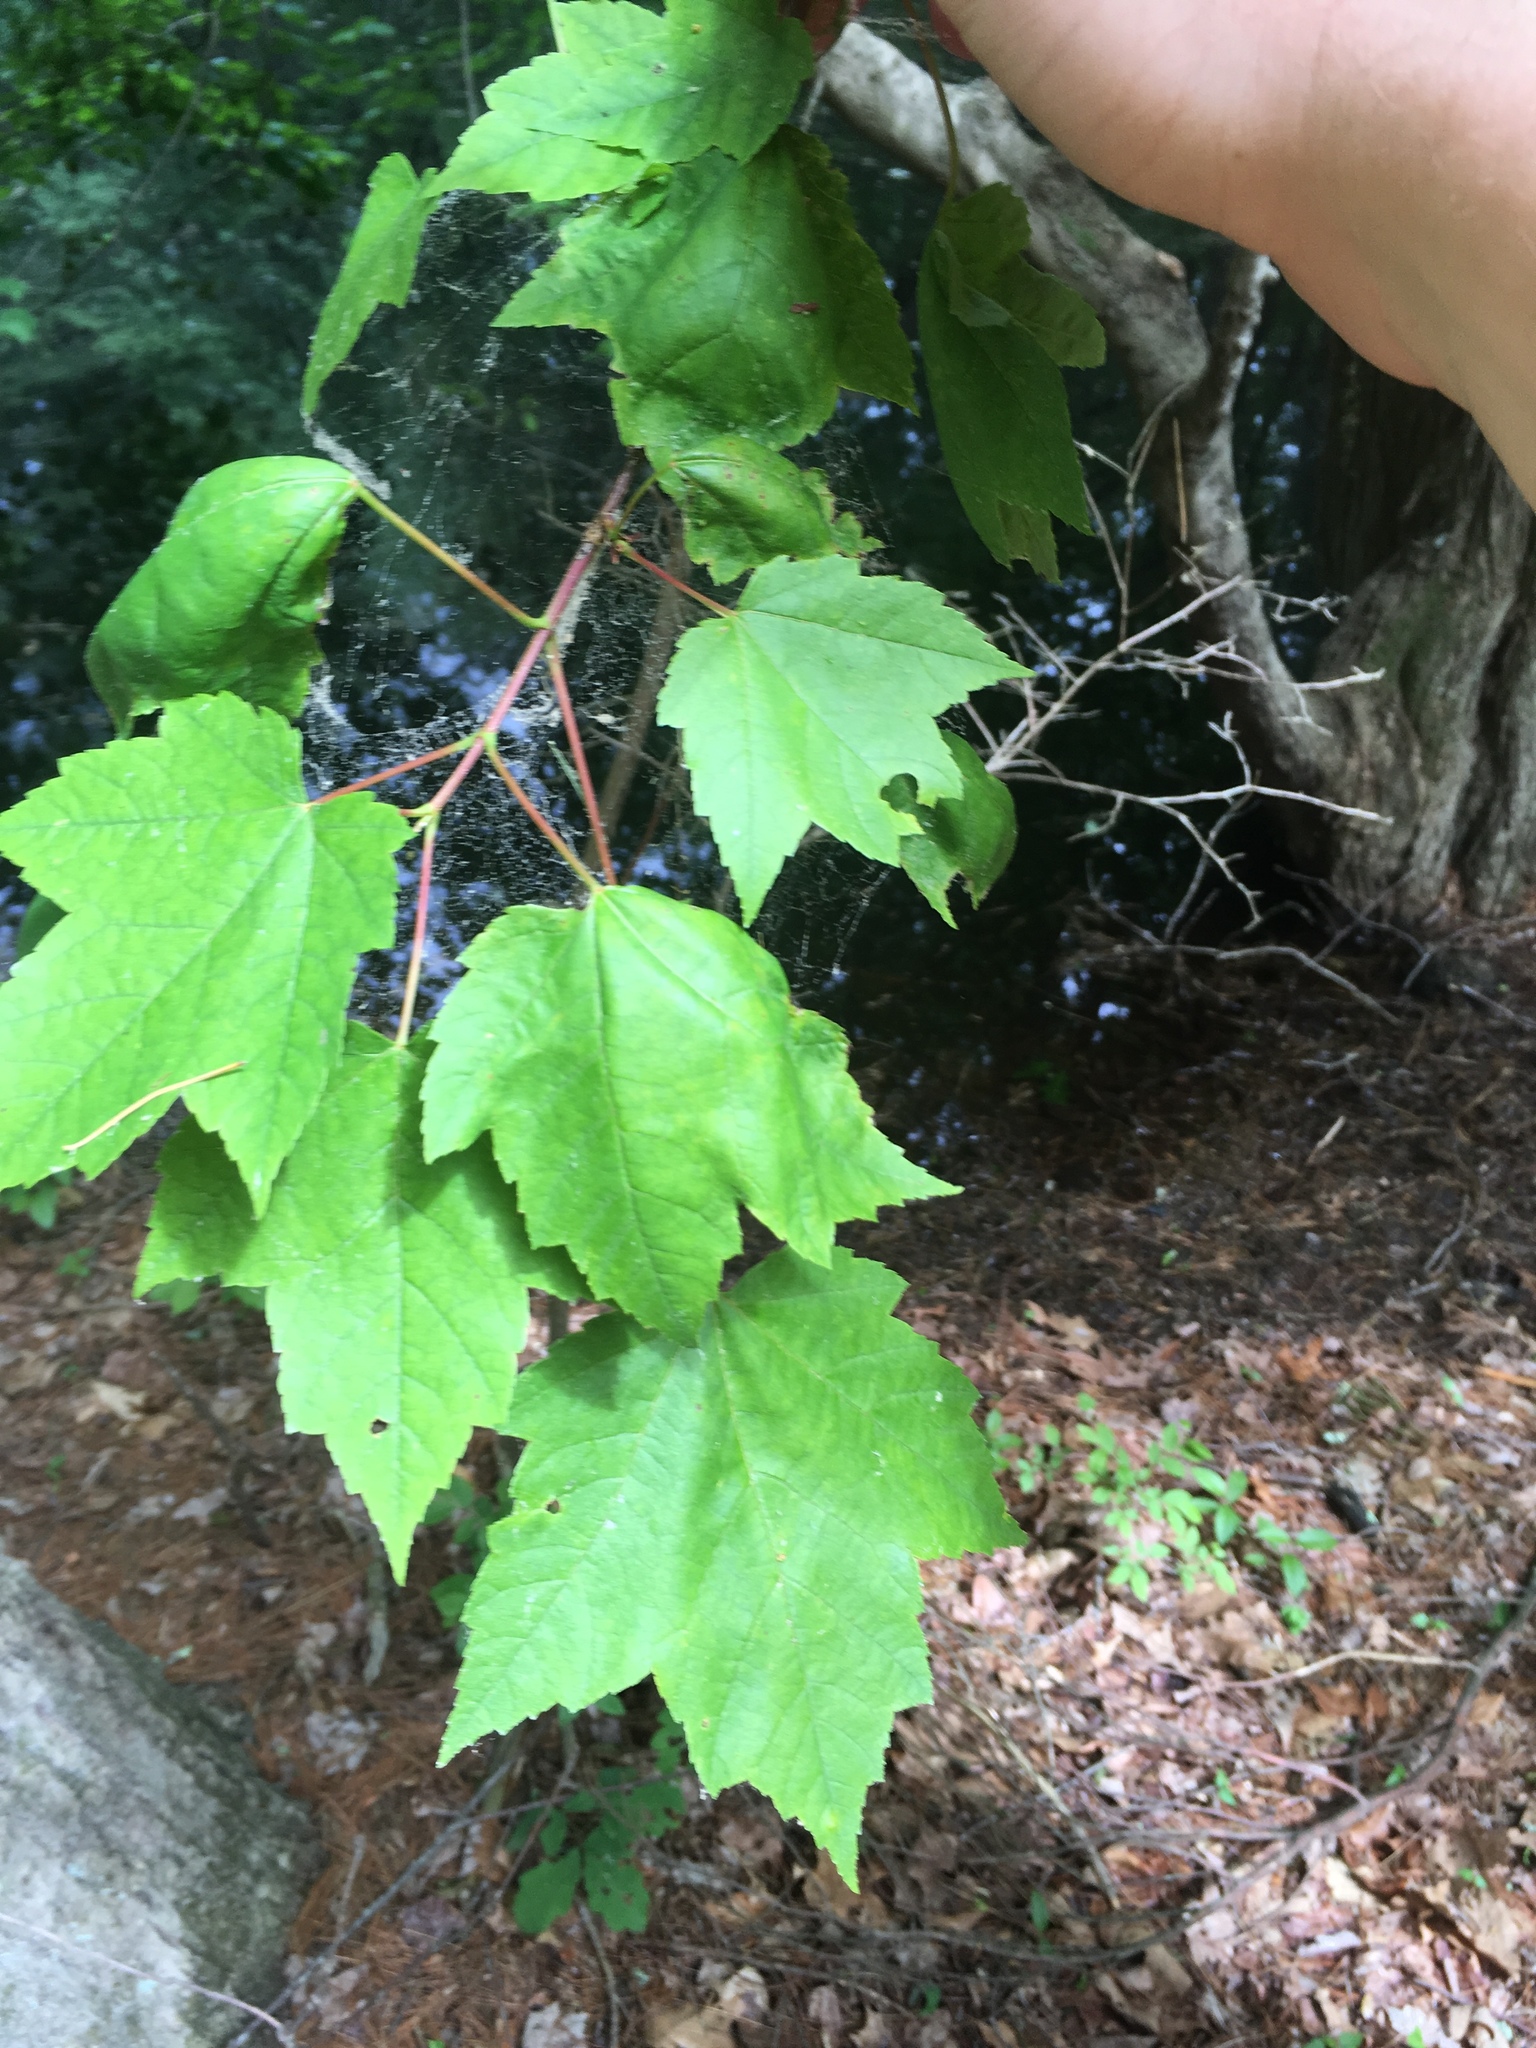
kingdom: Plantae
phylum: Tracheophyta
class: Magnoliopsida
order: Sapindales
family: Sapindaceae
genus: Acer
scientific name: Acer rubrum
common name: Red maple
